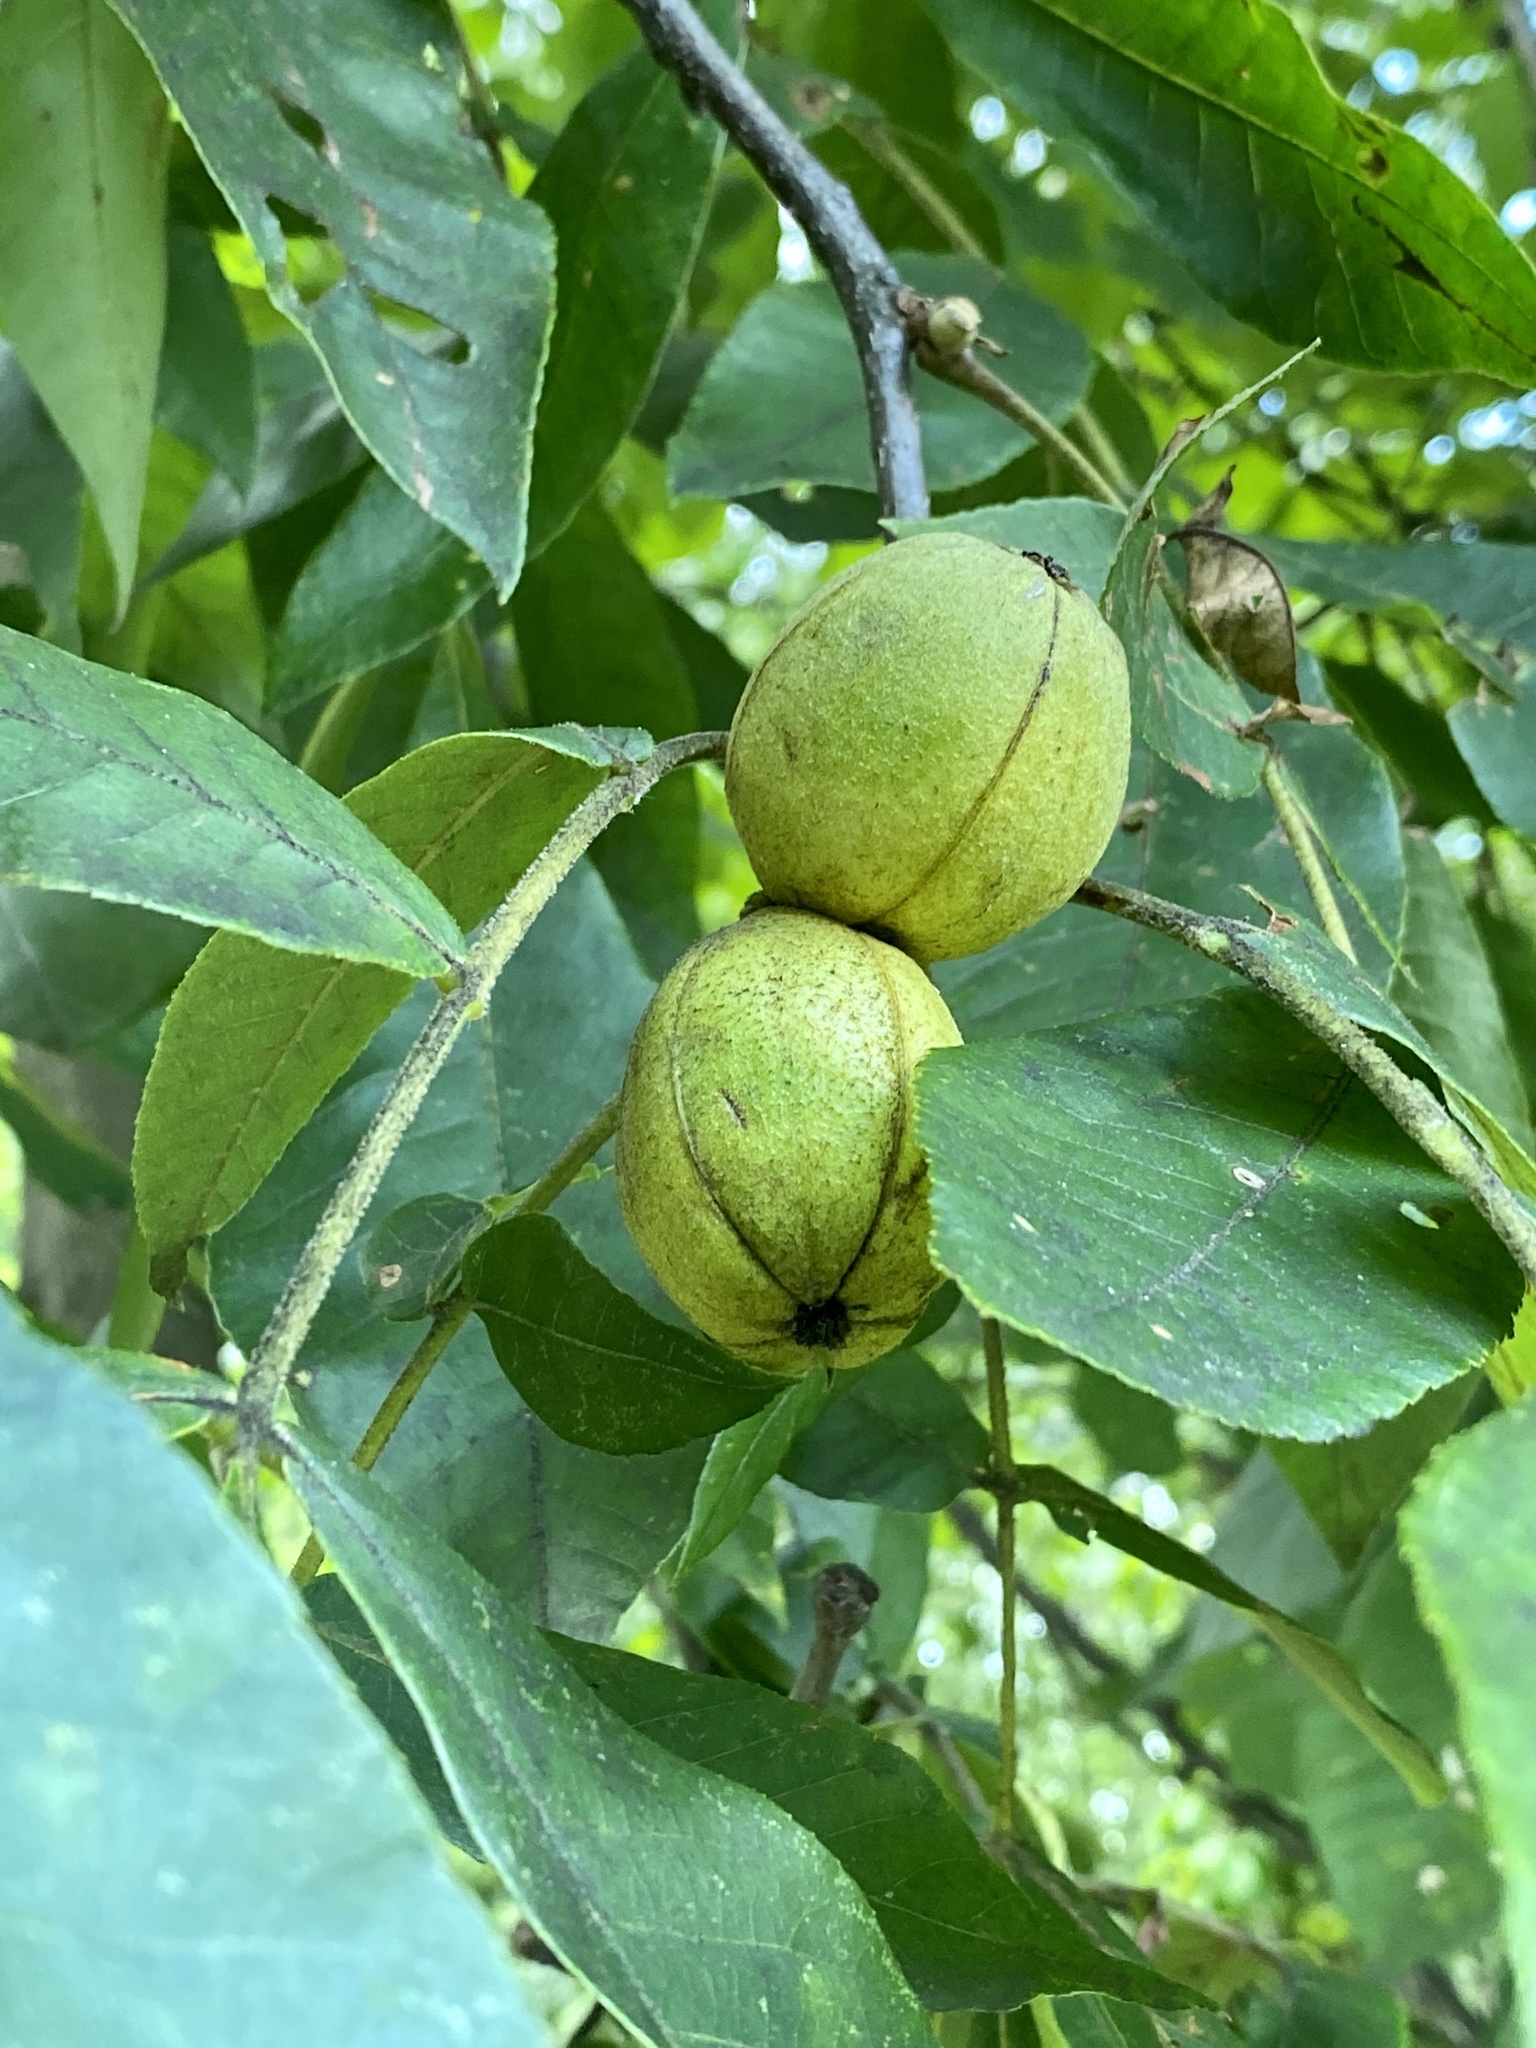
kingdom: Plantae
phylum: Tracheophyta
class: Magnoliopsida
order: Fagales
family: Juglandaceae
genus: Carya
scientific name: Carya alba
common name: Mockernut hickory
